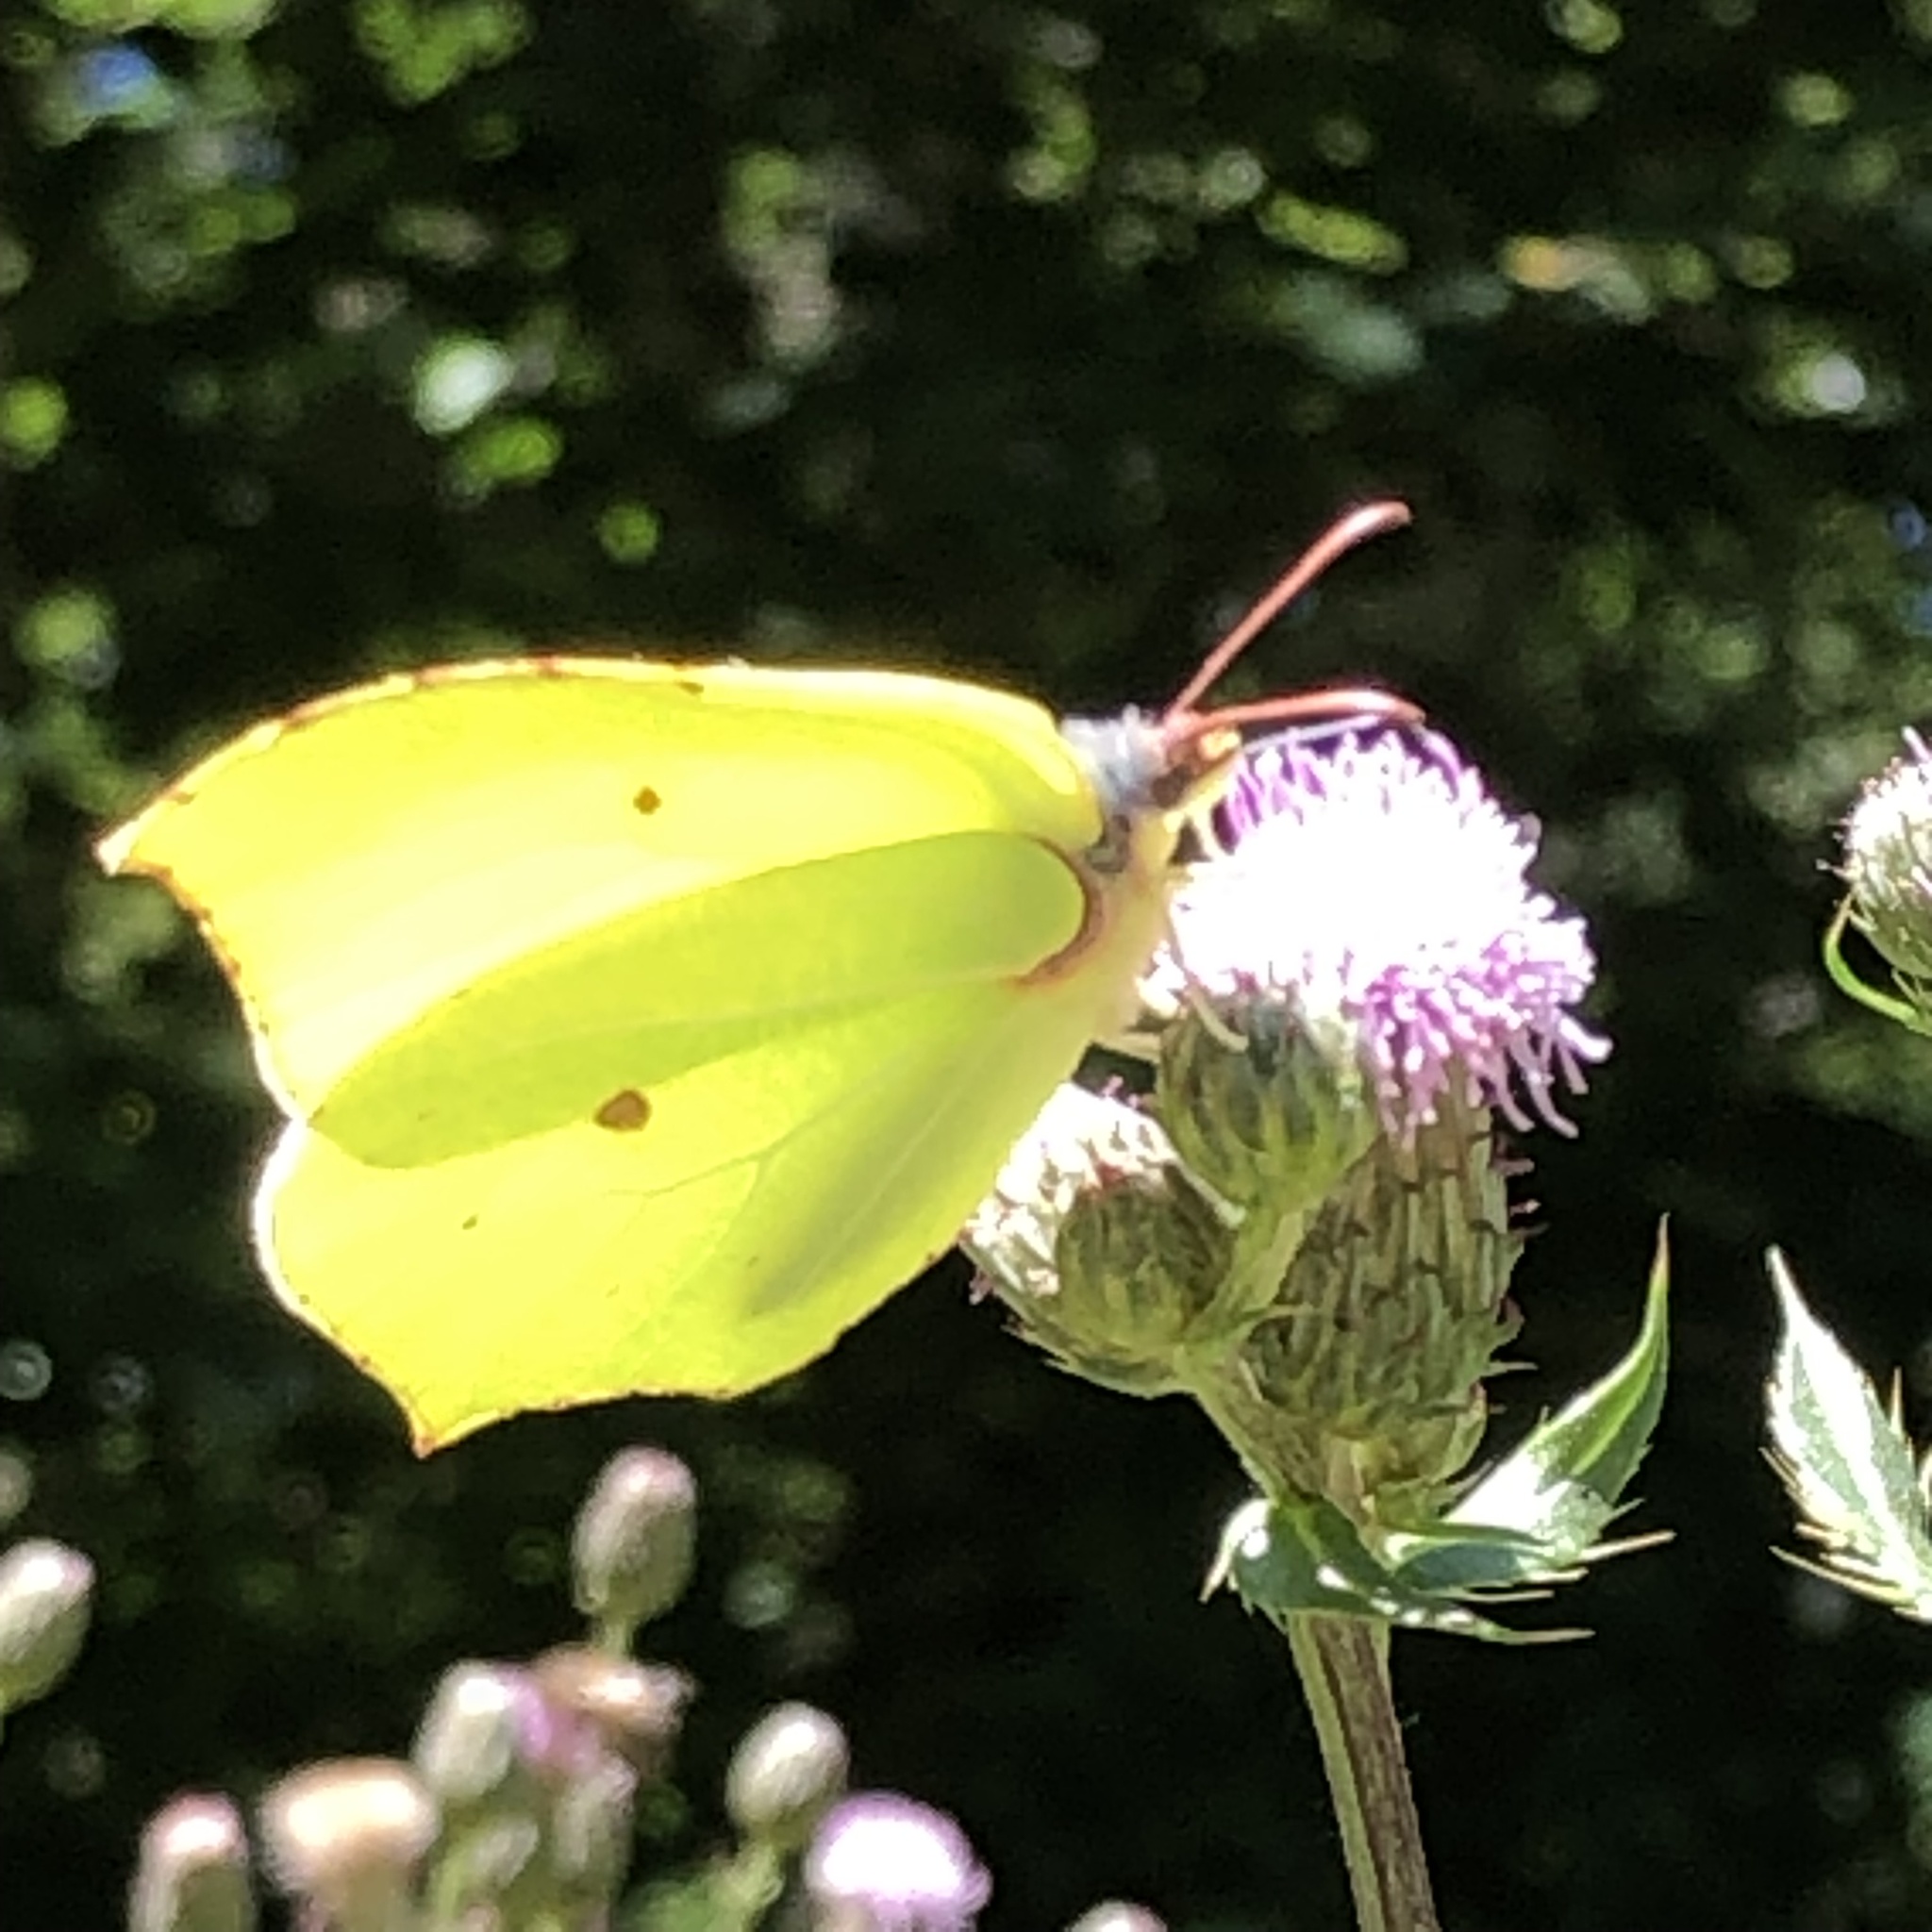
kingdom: Animalia
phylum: Arthropoda
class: Insecta
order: Lepidoptera
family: Pieridae
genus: Gonepteryx
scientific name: Gonepteryx rhamni
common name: Brimstone
